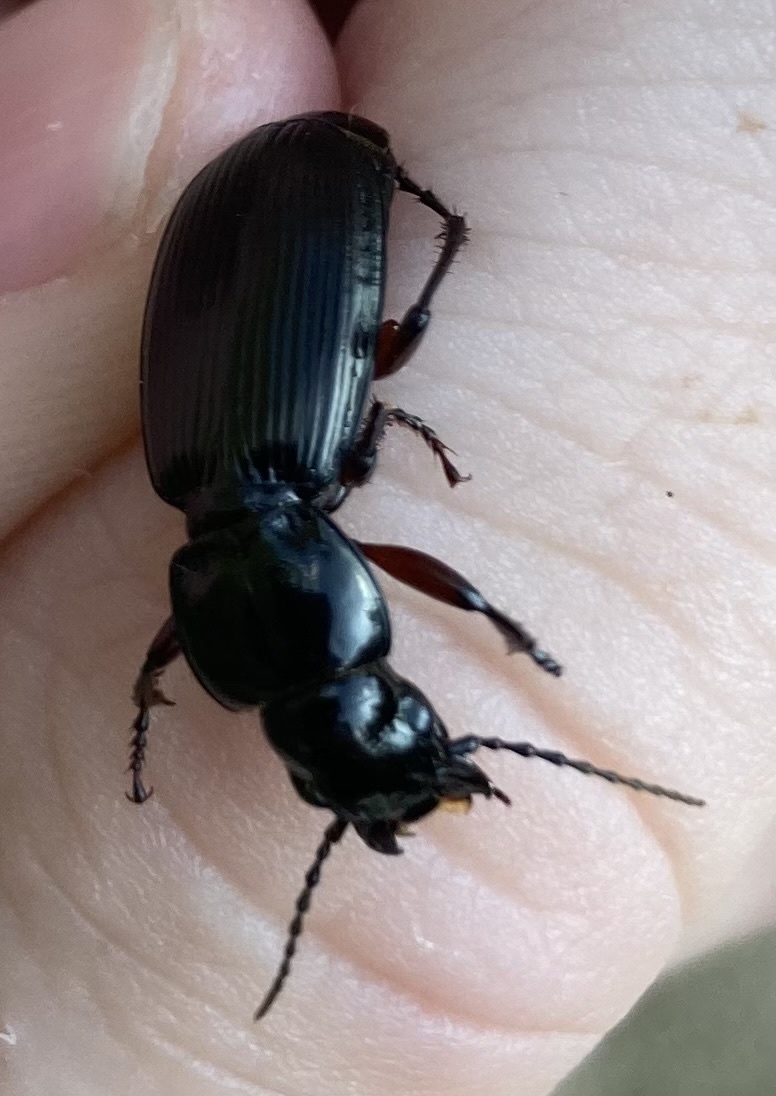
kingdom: Animalia
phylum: Arthropoda
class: Insecta
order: Coleoptera
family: Carabidae
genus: Pterostichus
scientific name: Pterostichus madidus
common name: Black clock
